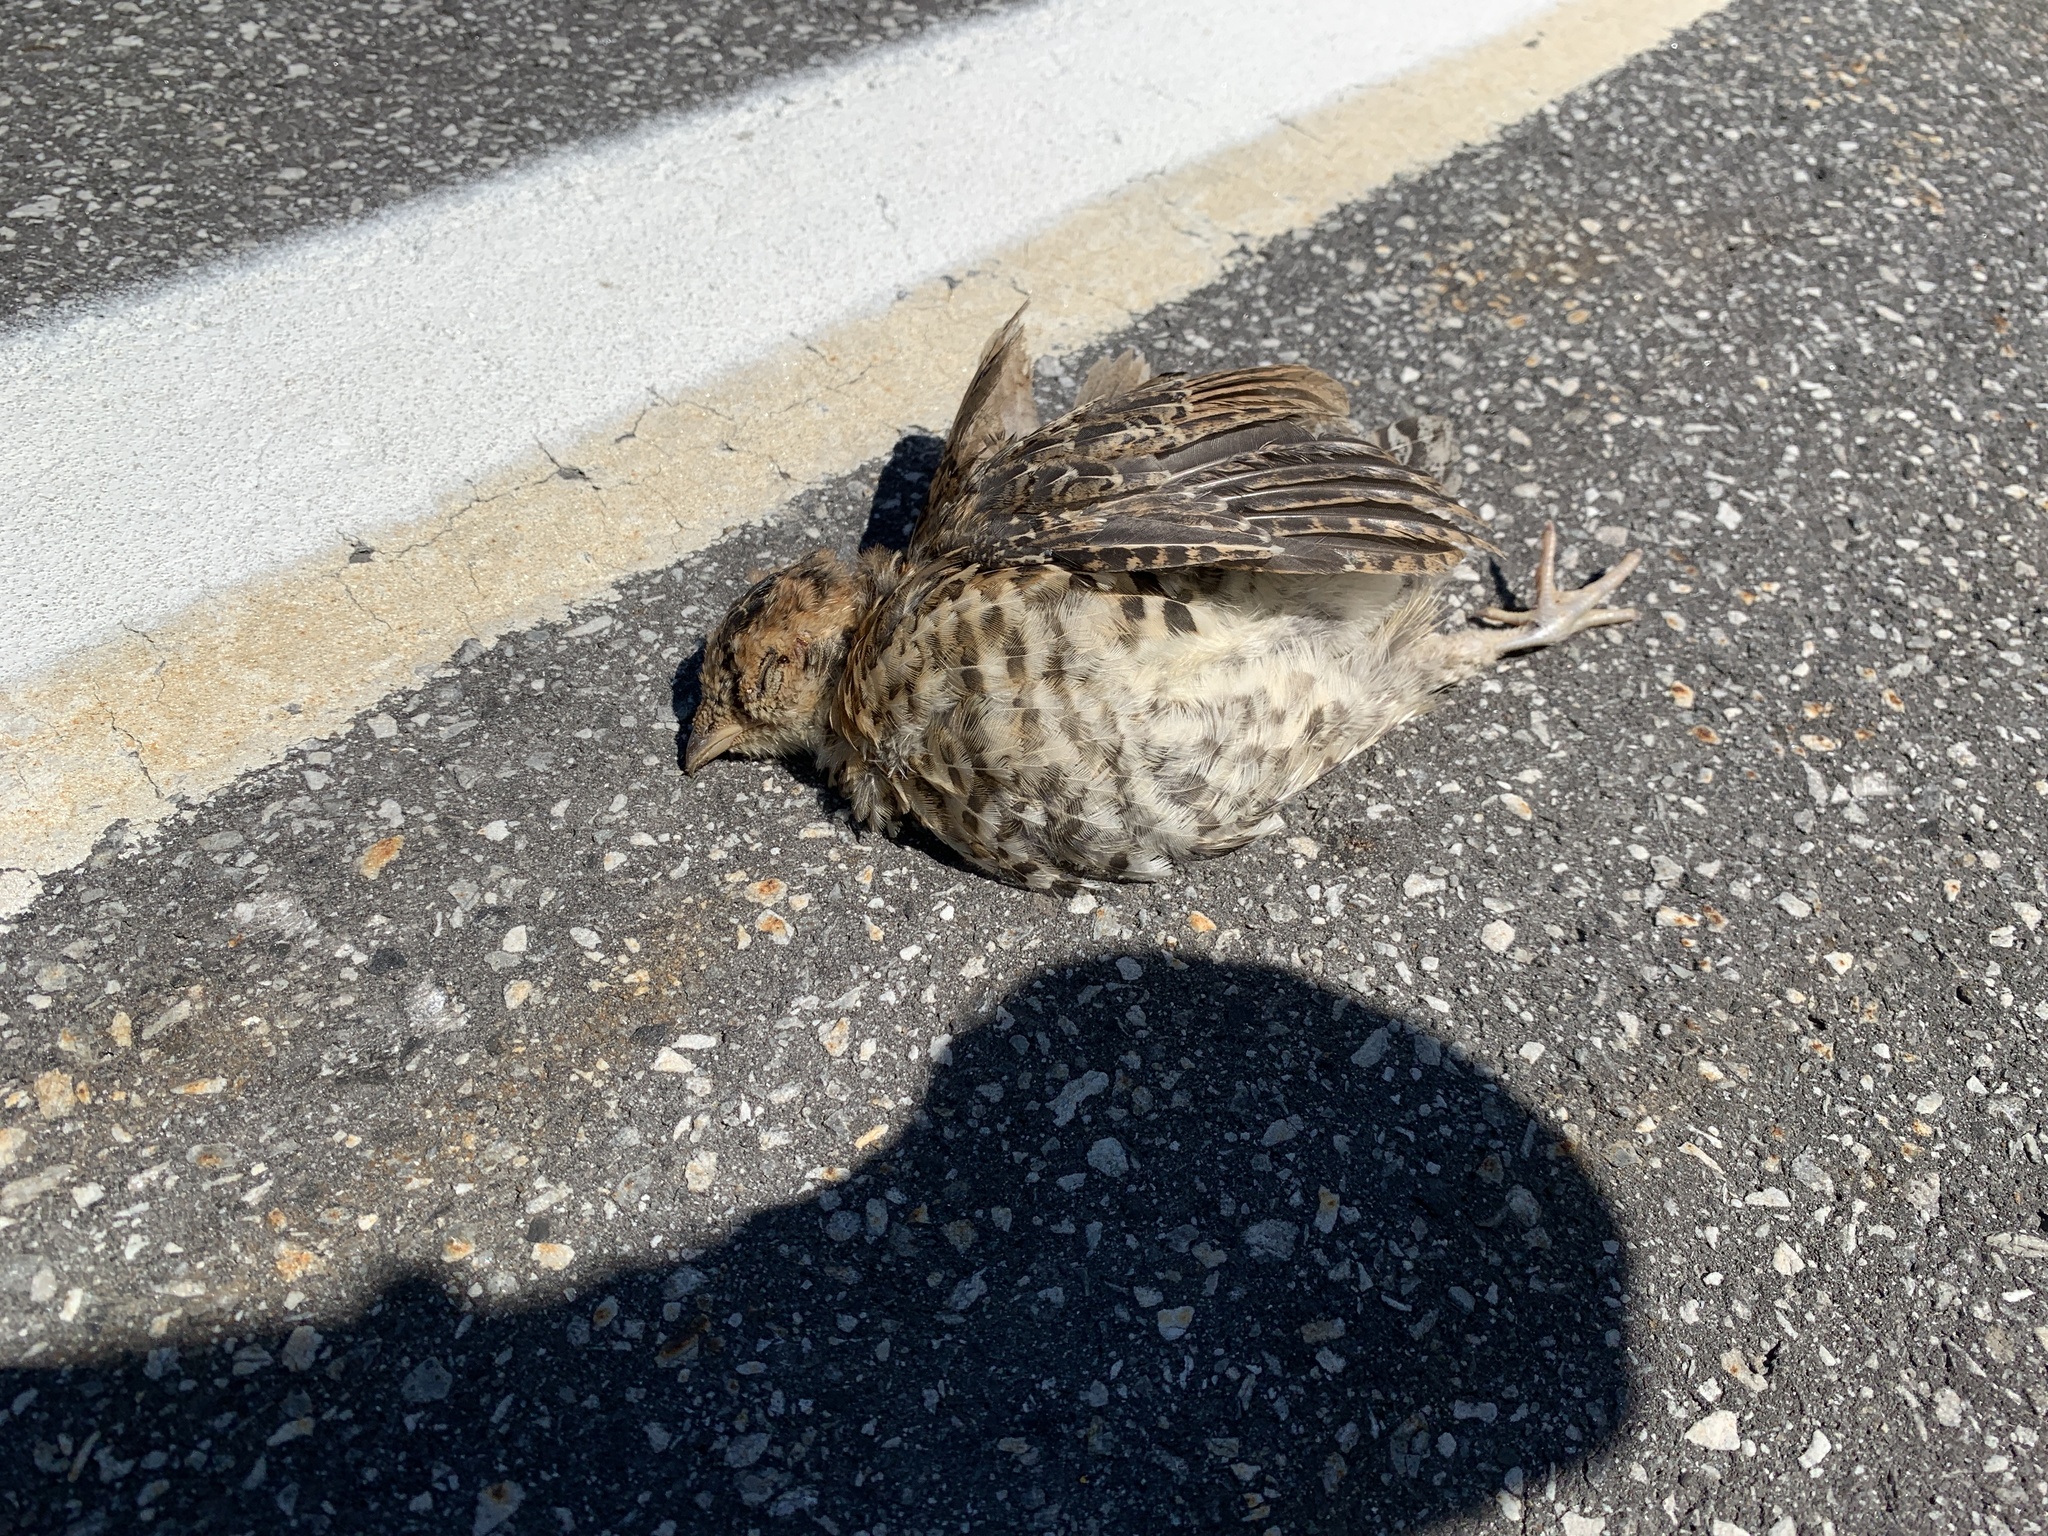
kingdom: Animalia
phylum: Chordata
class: Aves
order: Galliformes
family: Phasianidae
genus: Bonasa
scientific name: Bonasa umbellus
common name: Ruffed grouse
